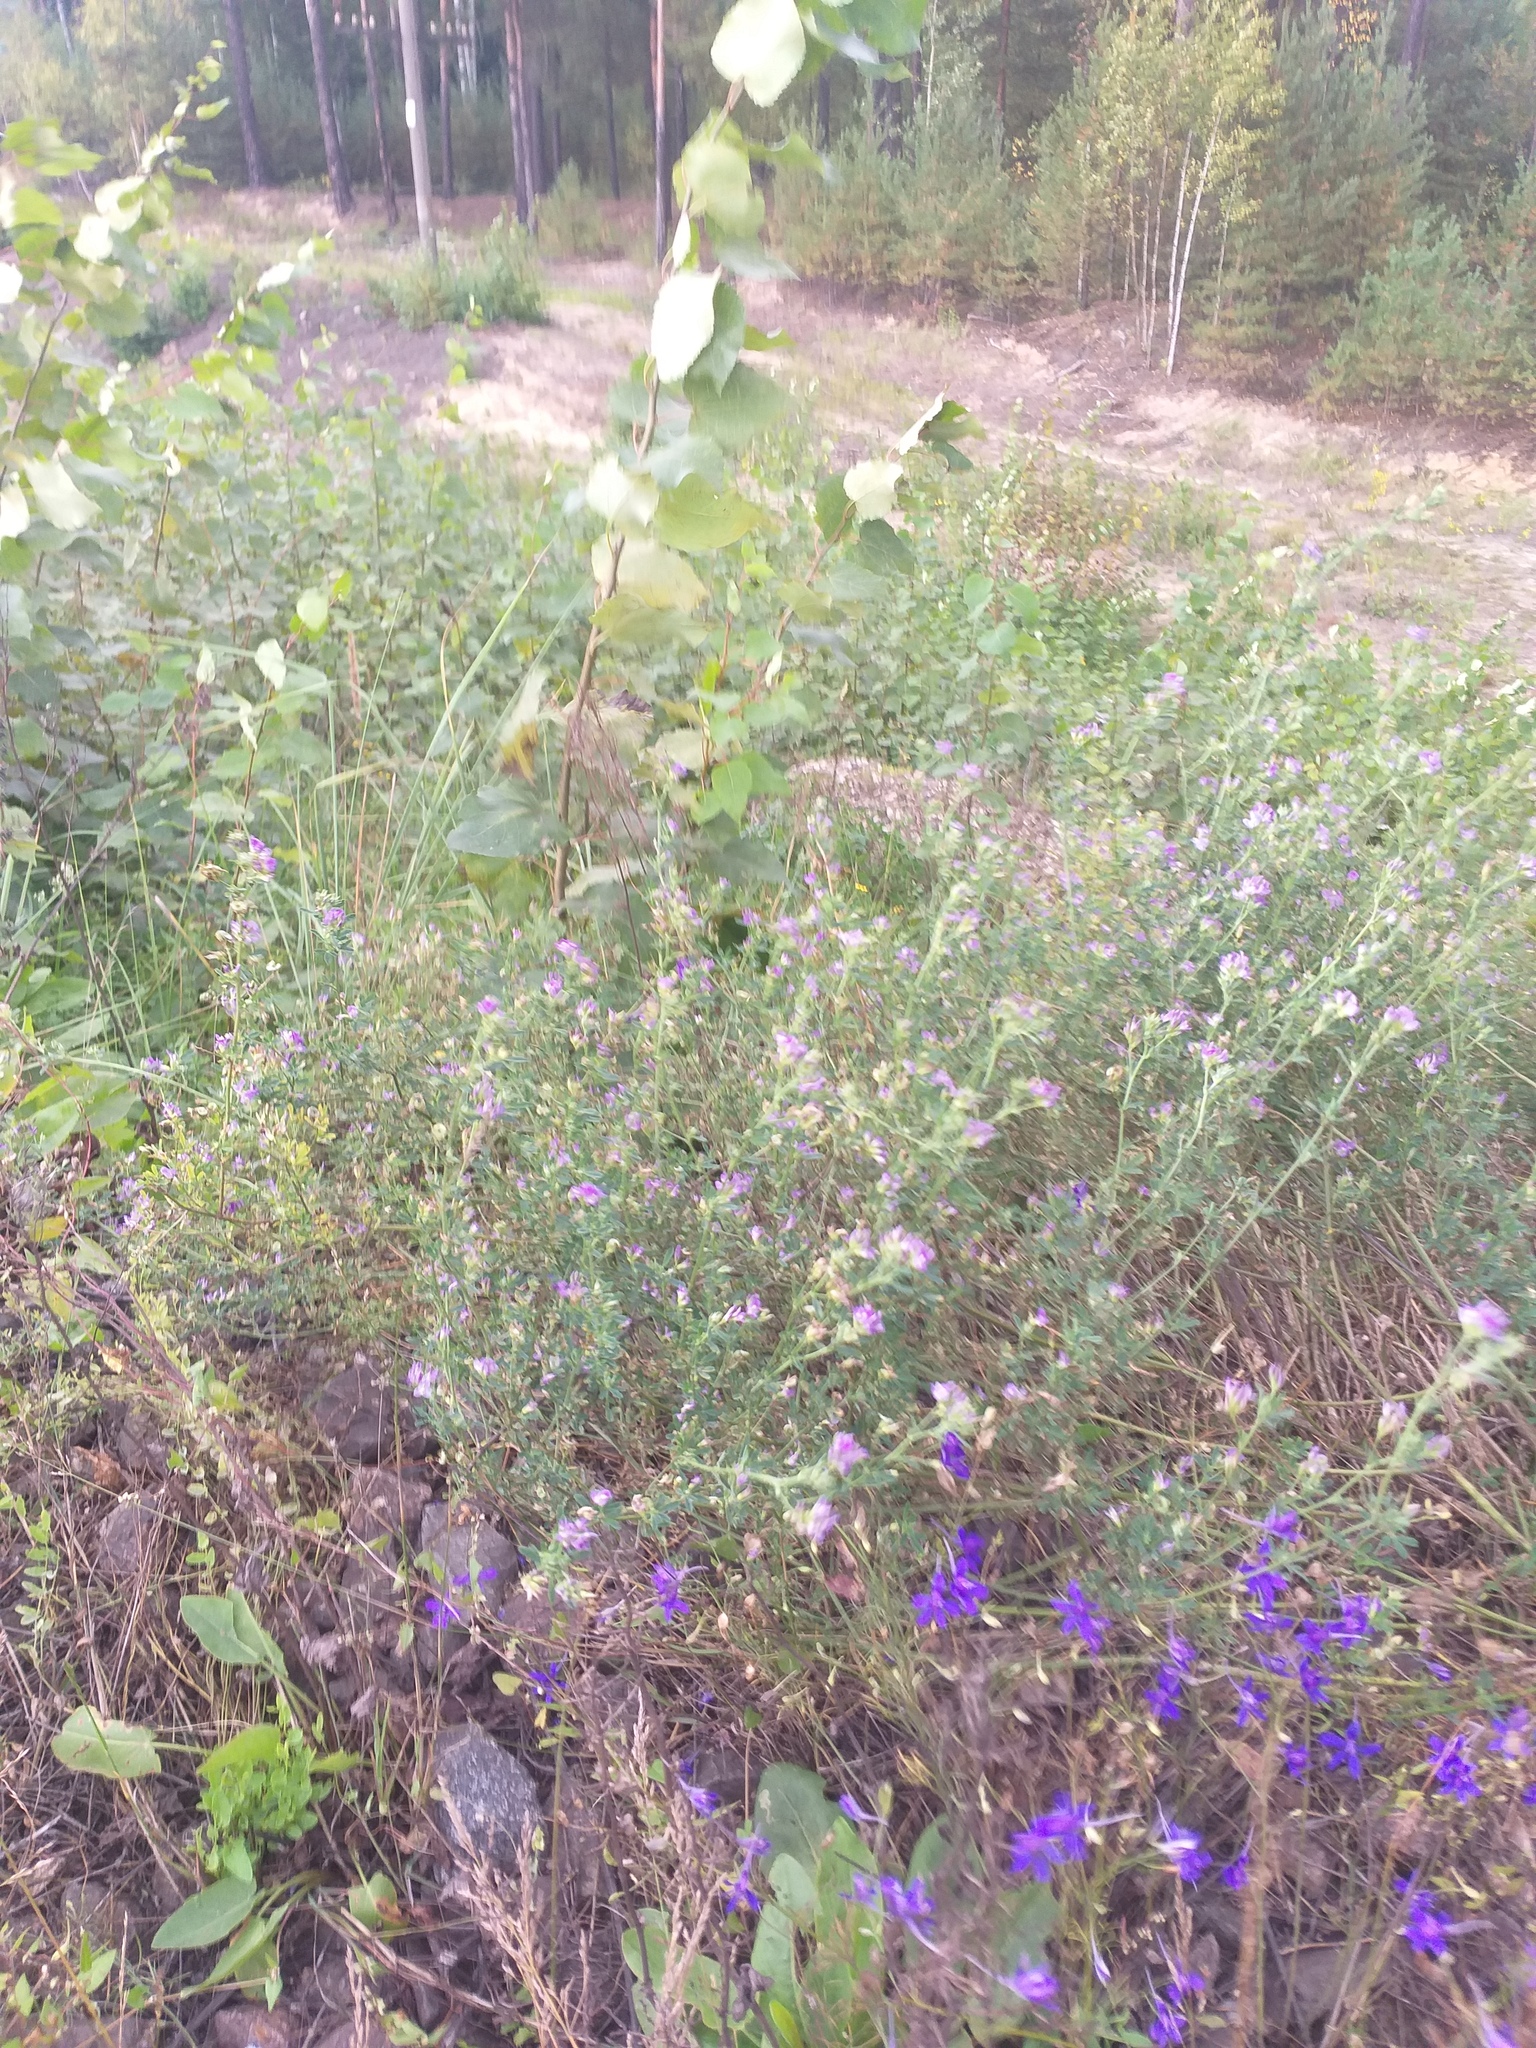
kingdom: Plantae
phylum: Tracheophyta
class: Magnoliopsida
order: Fabales
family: Fabaceae
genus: Medicago
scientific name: Medicago varia
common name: Sand lucerne
